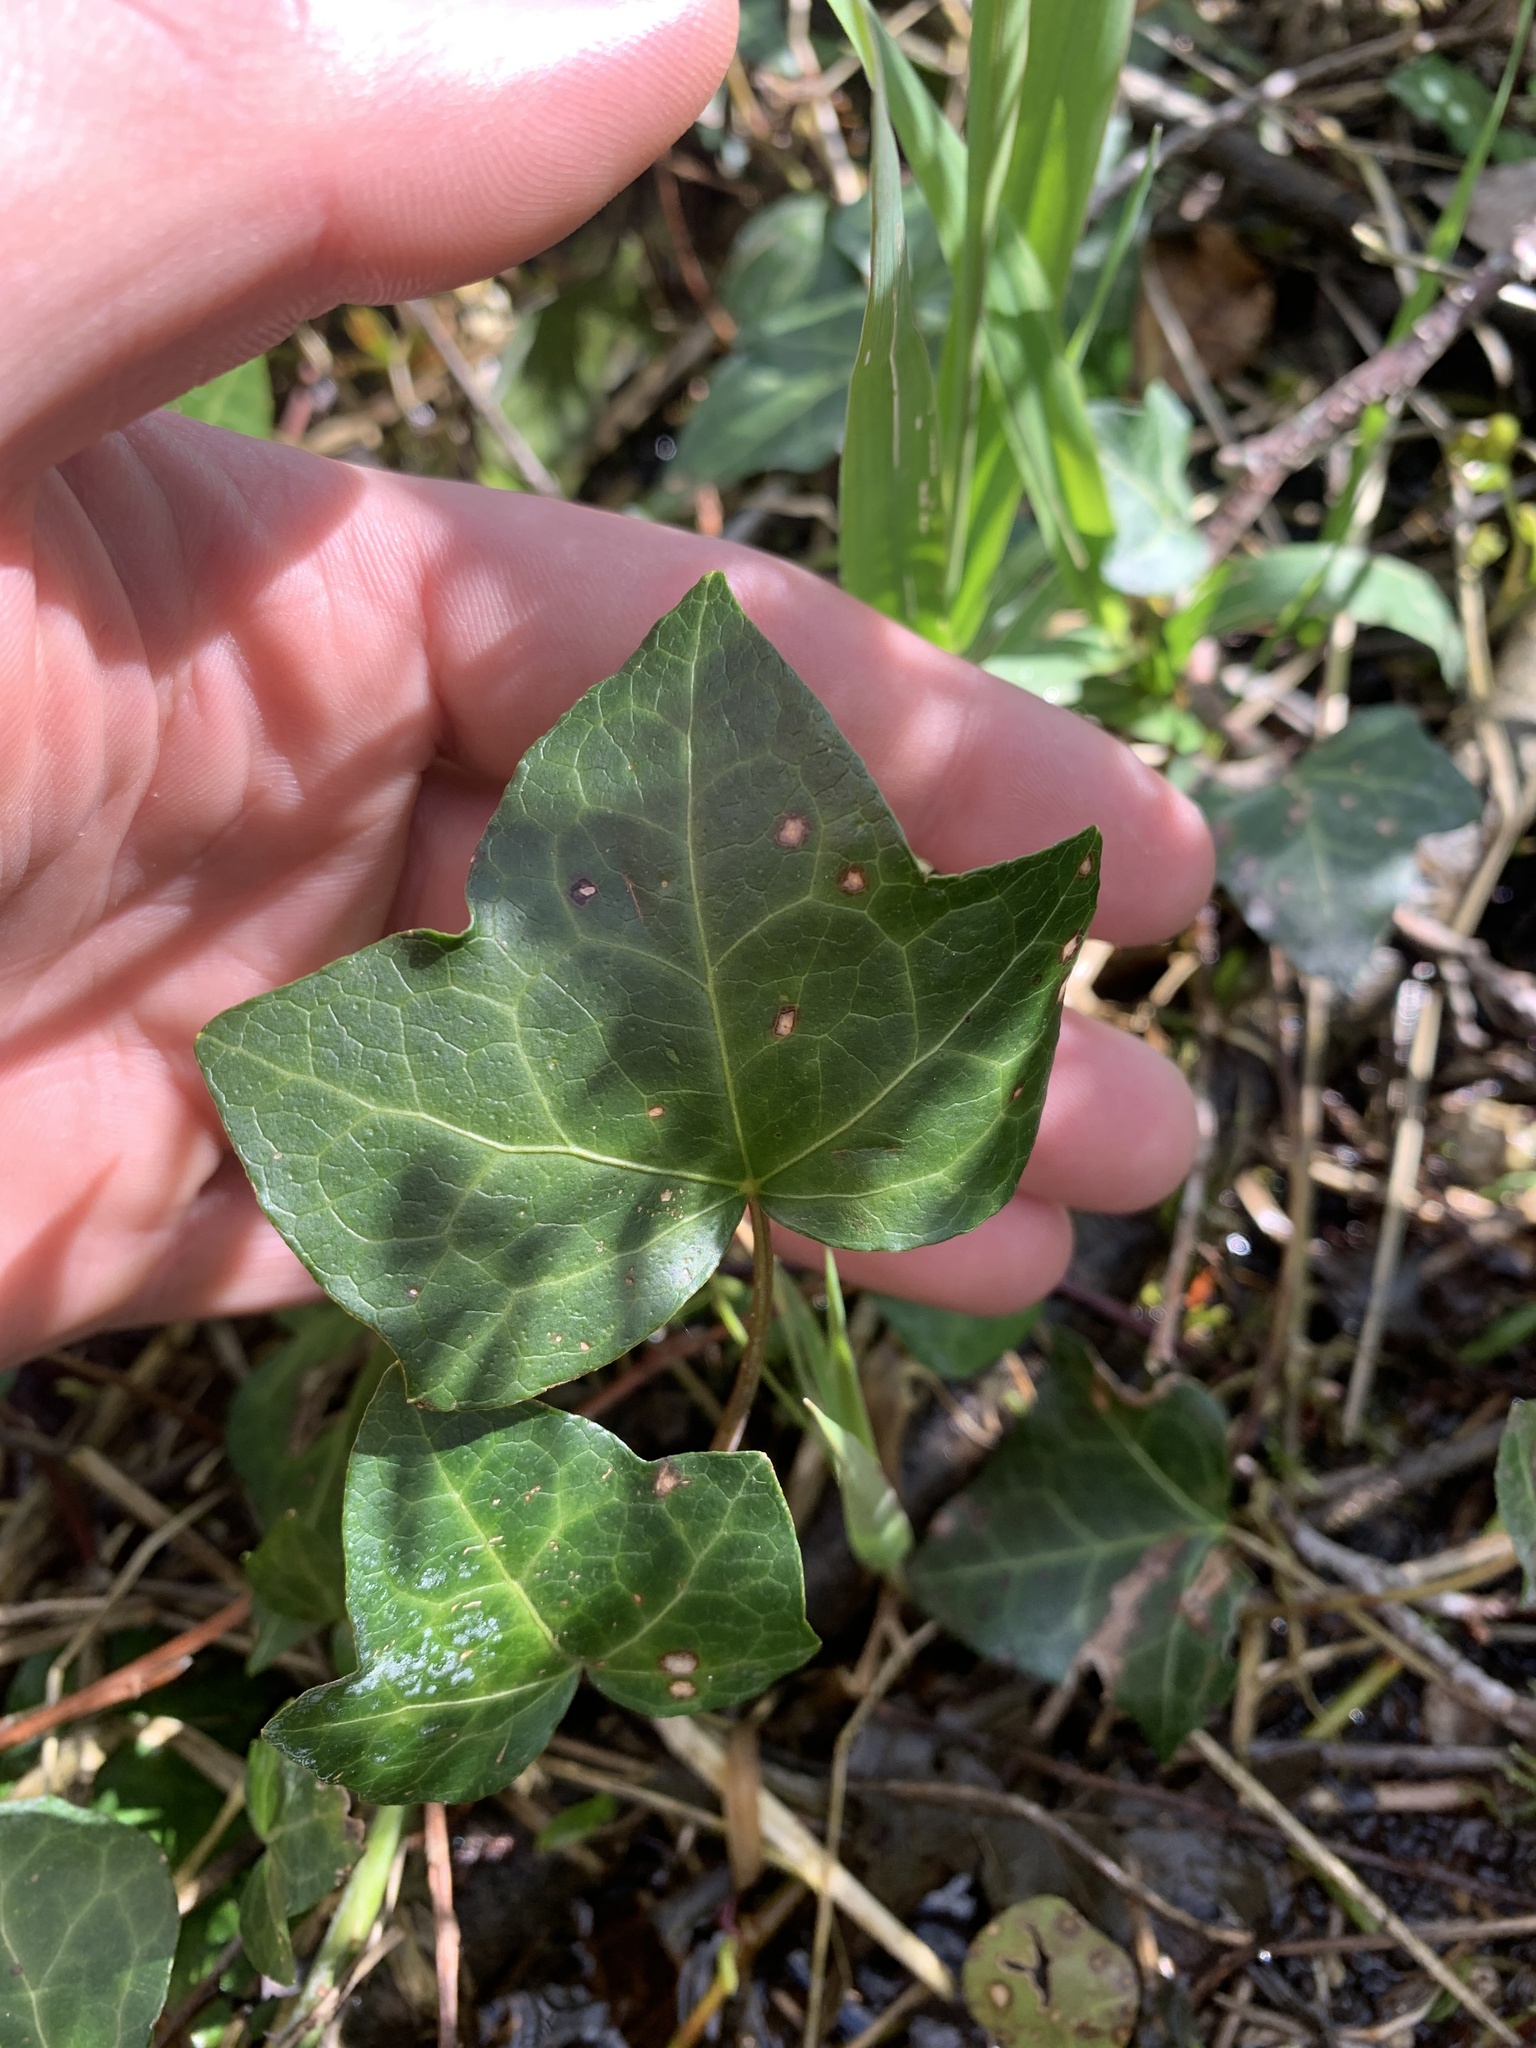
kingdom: Plantae
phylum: Tracheophyta
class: Magnoliopsida
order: Apiales
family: Araliaceae
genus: Hedera
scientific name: Hedera helix
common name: Ivy
